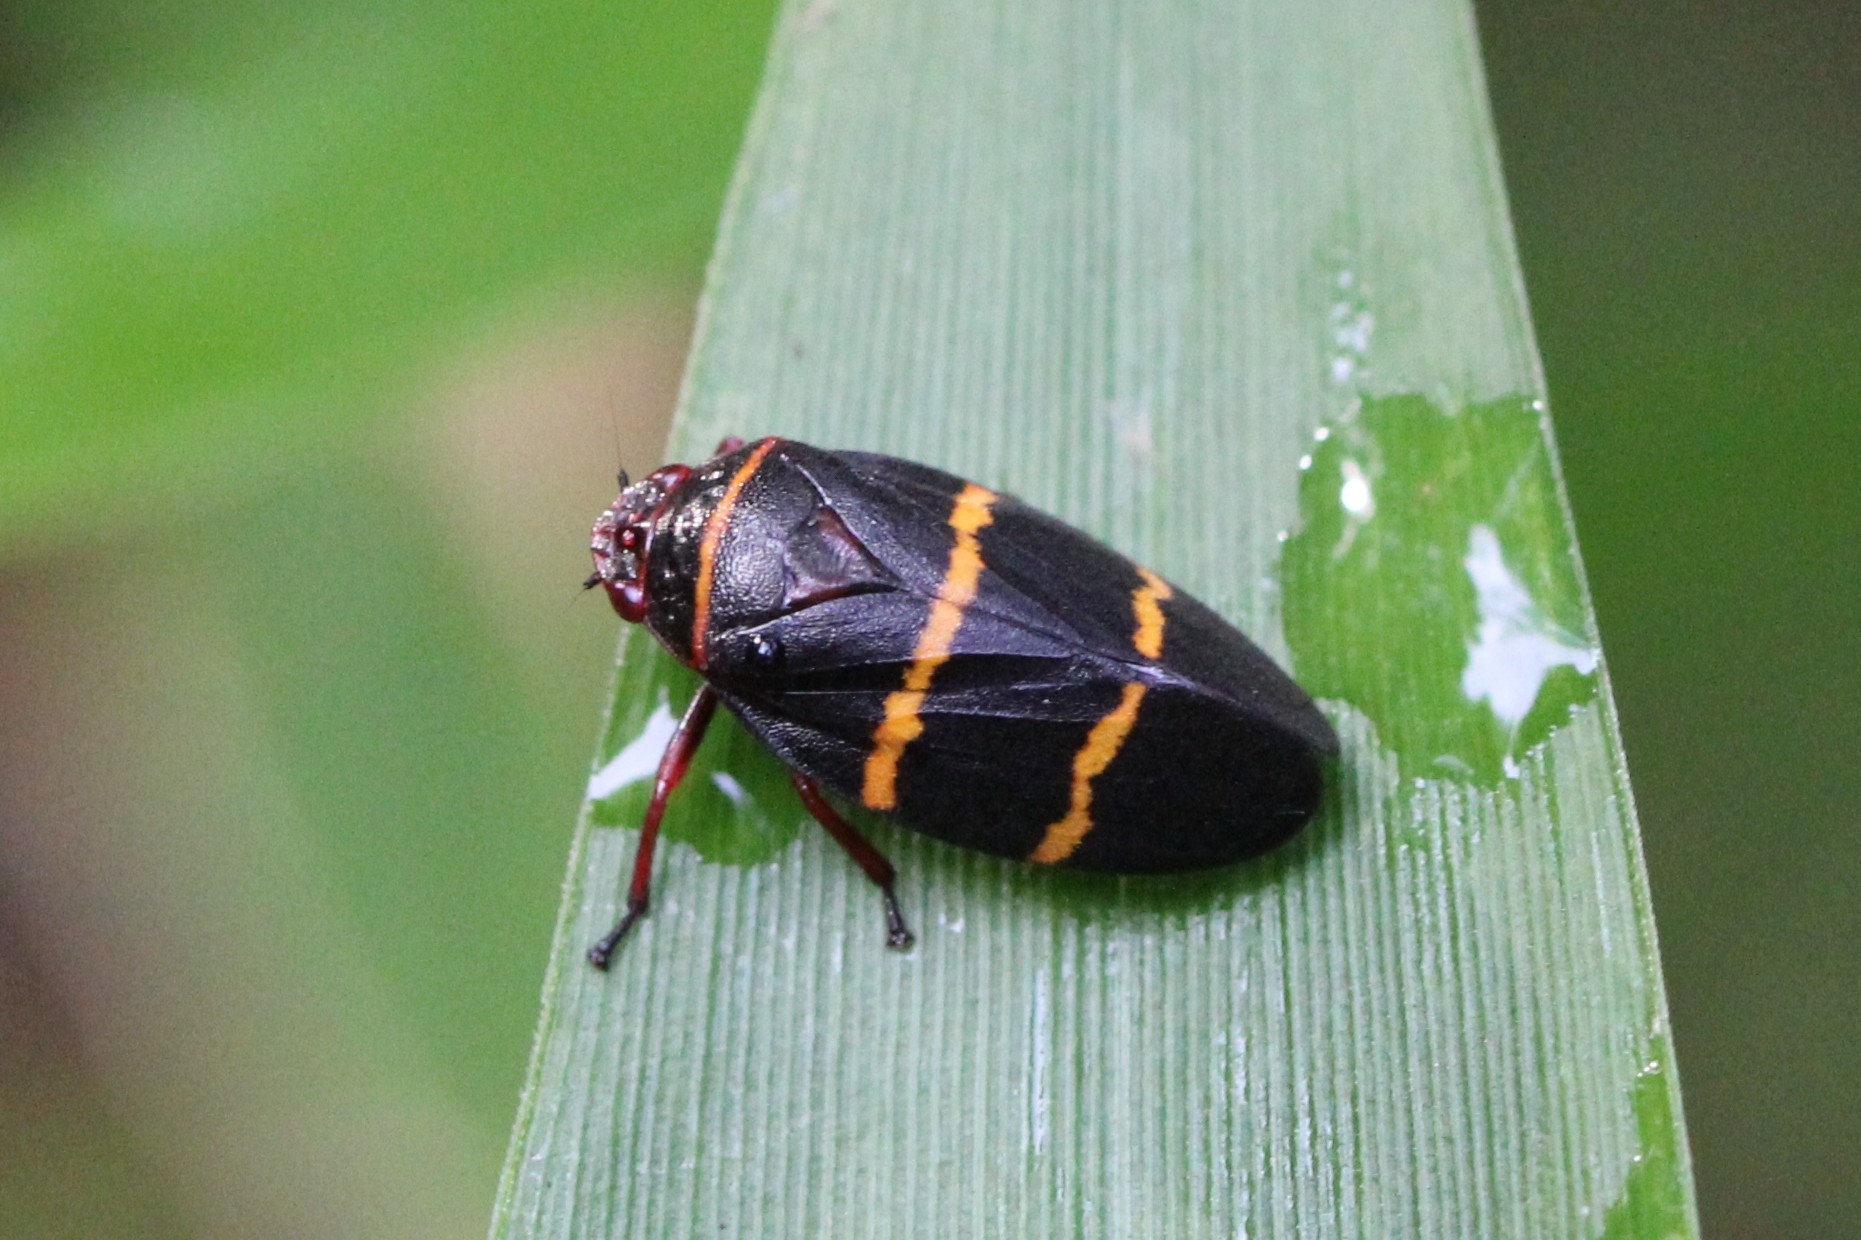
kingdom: Animalia
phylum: Arthropoda
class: Insecta
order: Hemiptera
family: Cercopidae
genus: Prosapia
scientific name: Prosapia bicincta
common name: Twolined spittlebug
